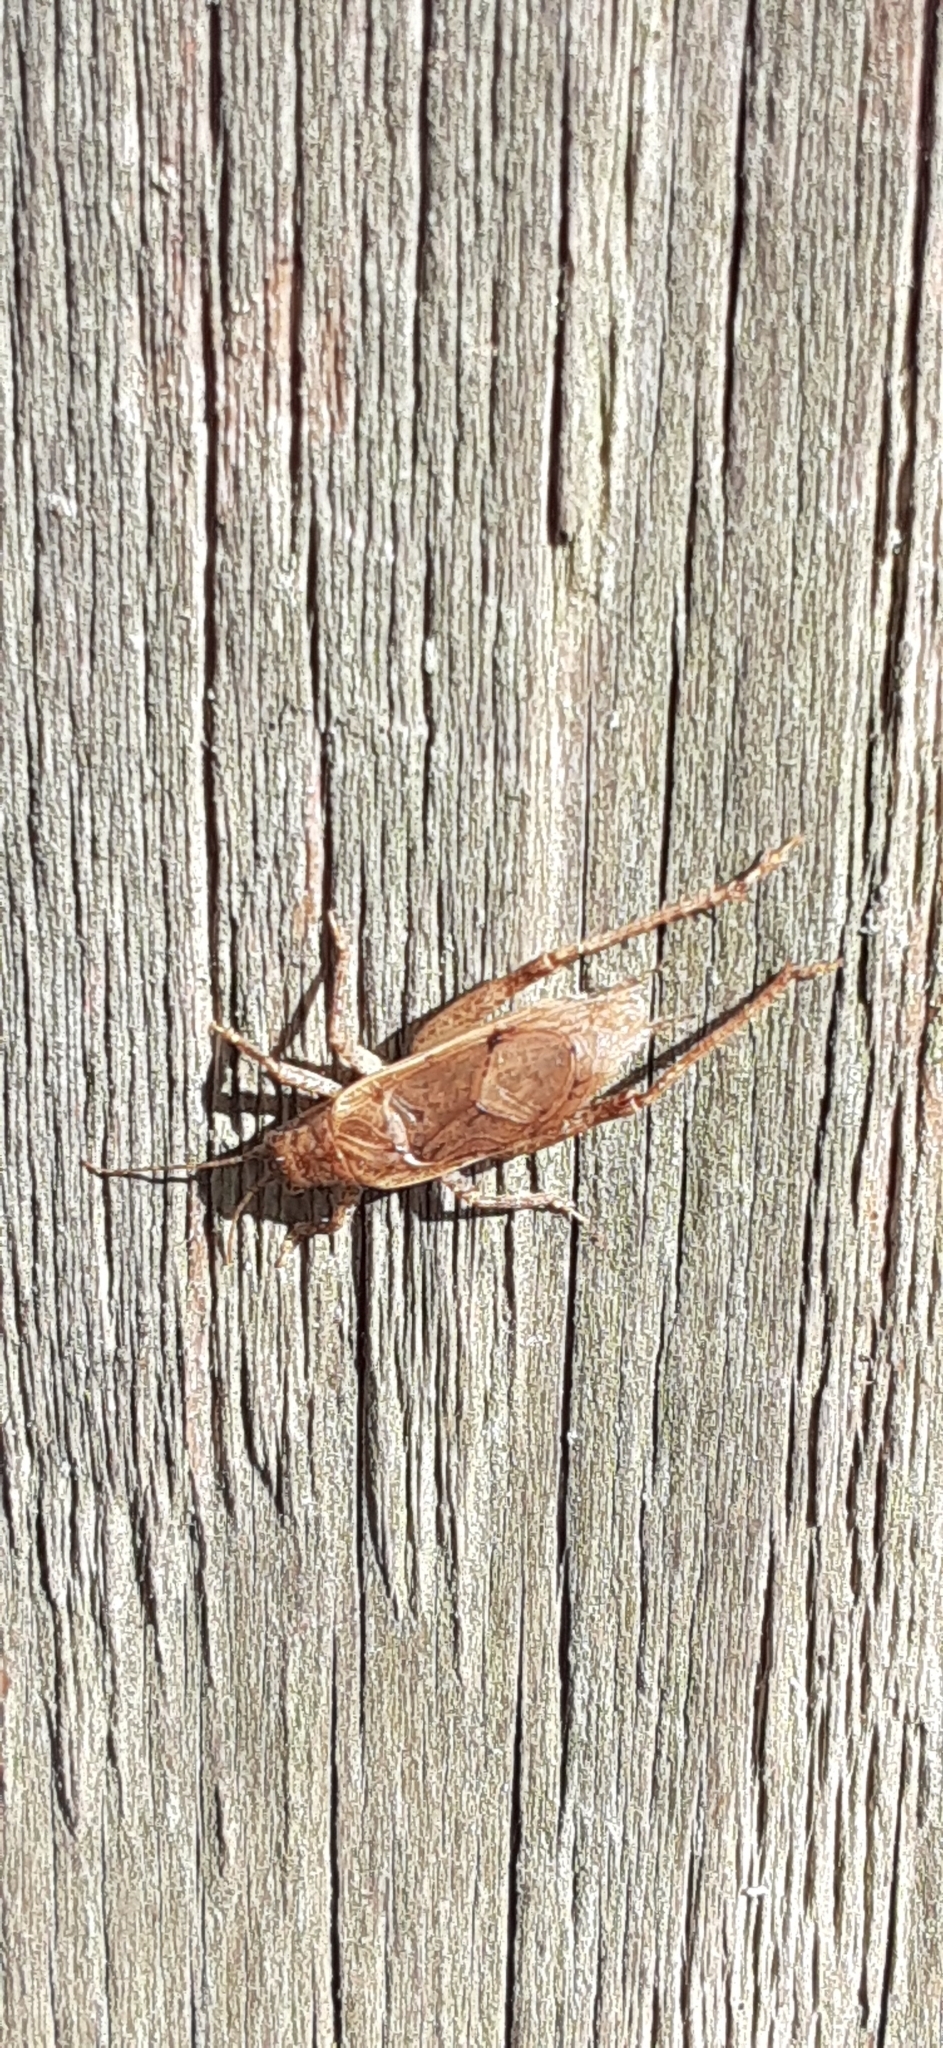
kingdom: Animalia
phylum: Arthropoda
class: Insecta
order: Orthoptera
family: Gryllidae
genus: Hapithus
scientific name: Hapithus saltator
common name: Jumping bush cricket
